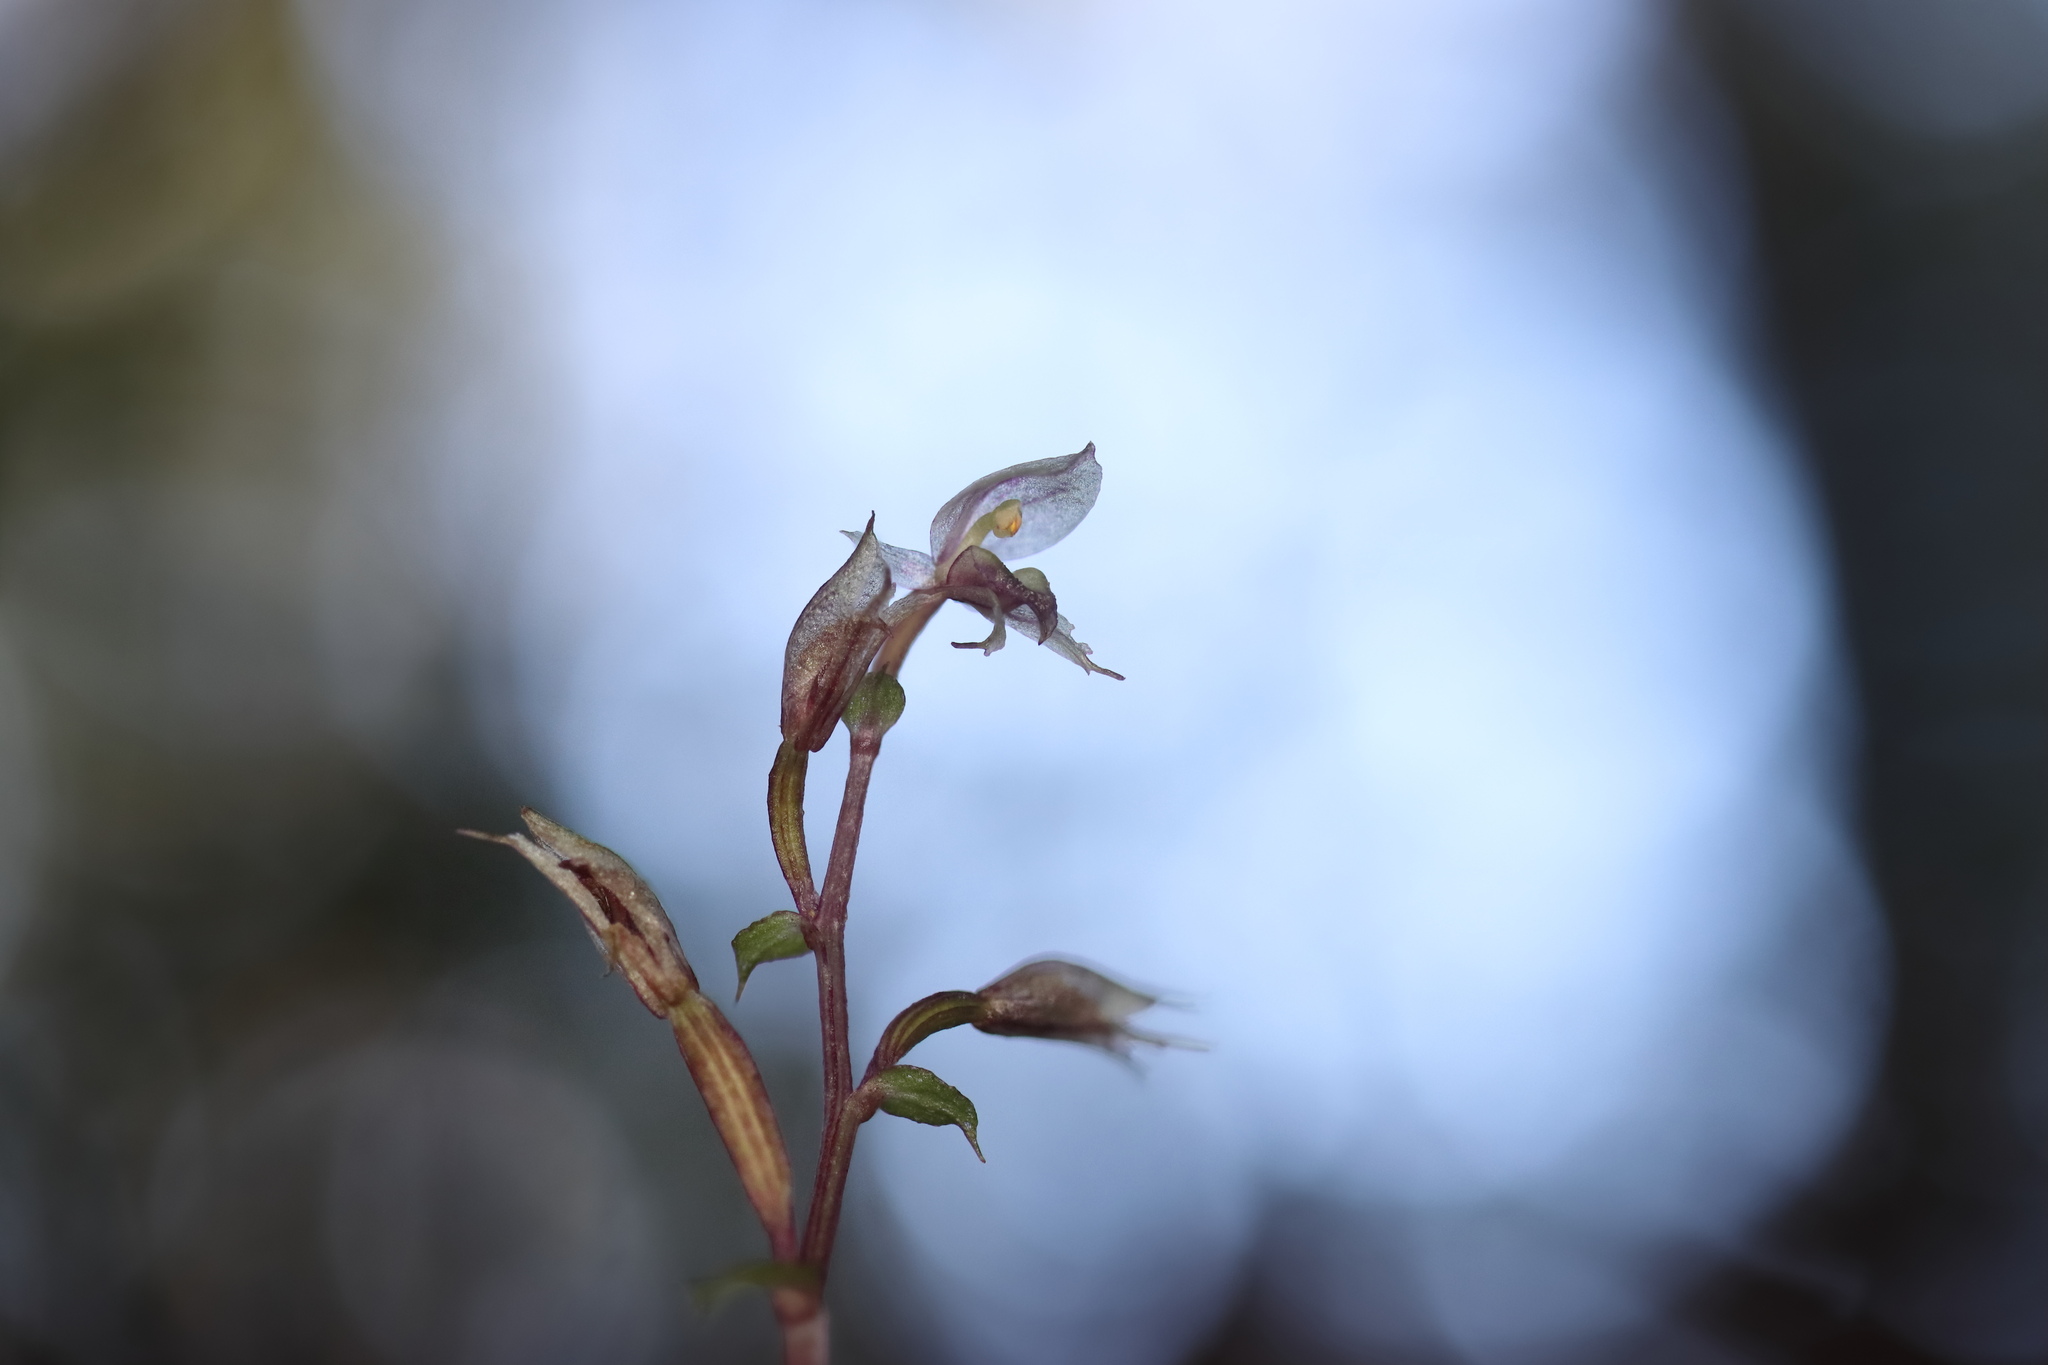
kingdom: Plantae
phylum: Tracheophyta
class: Liliopsida
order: Asparagales
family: Orchidaceae
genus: Acianthus
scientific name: Acianthus sinclairii
